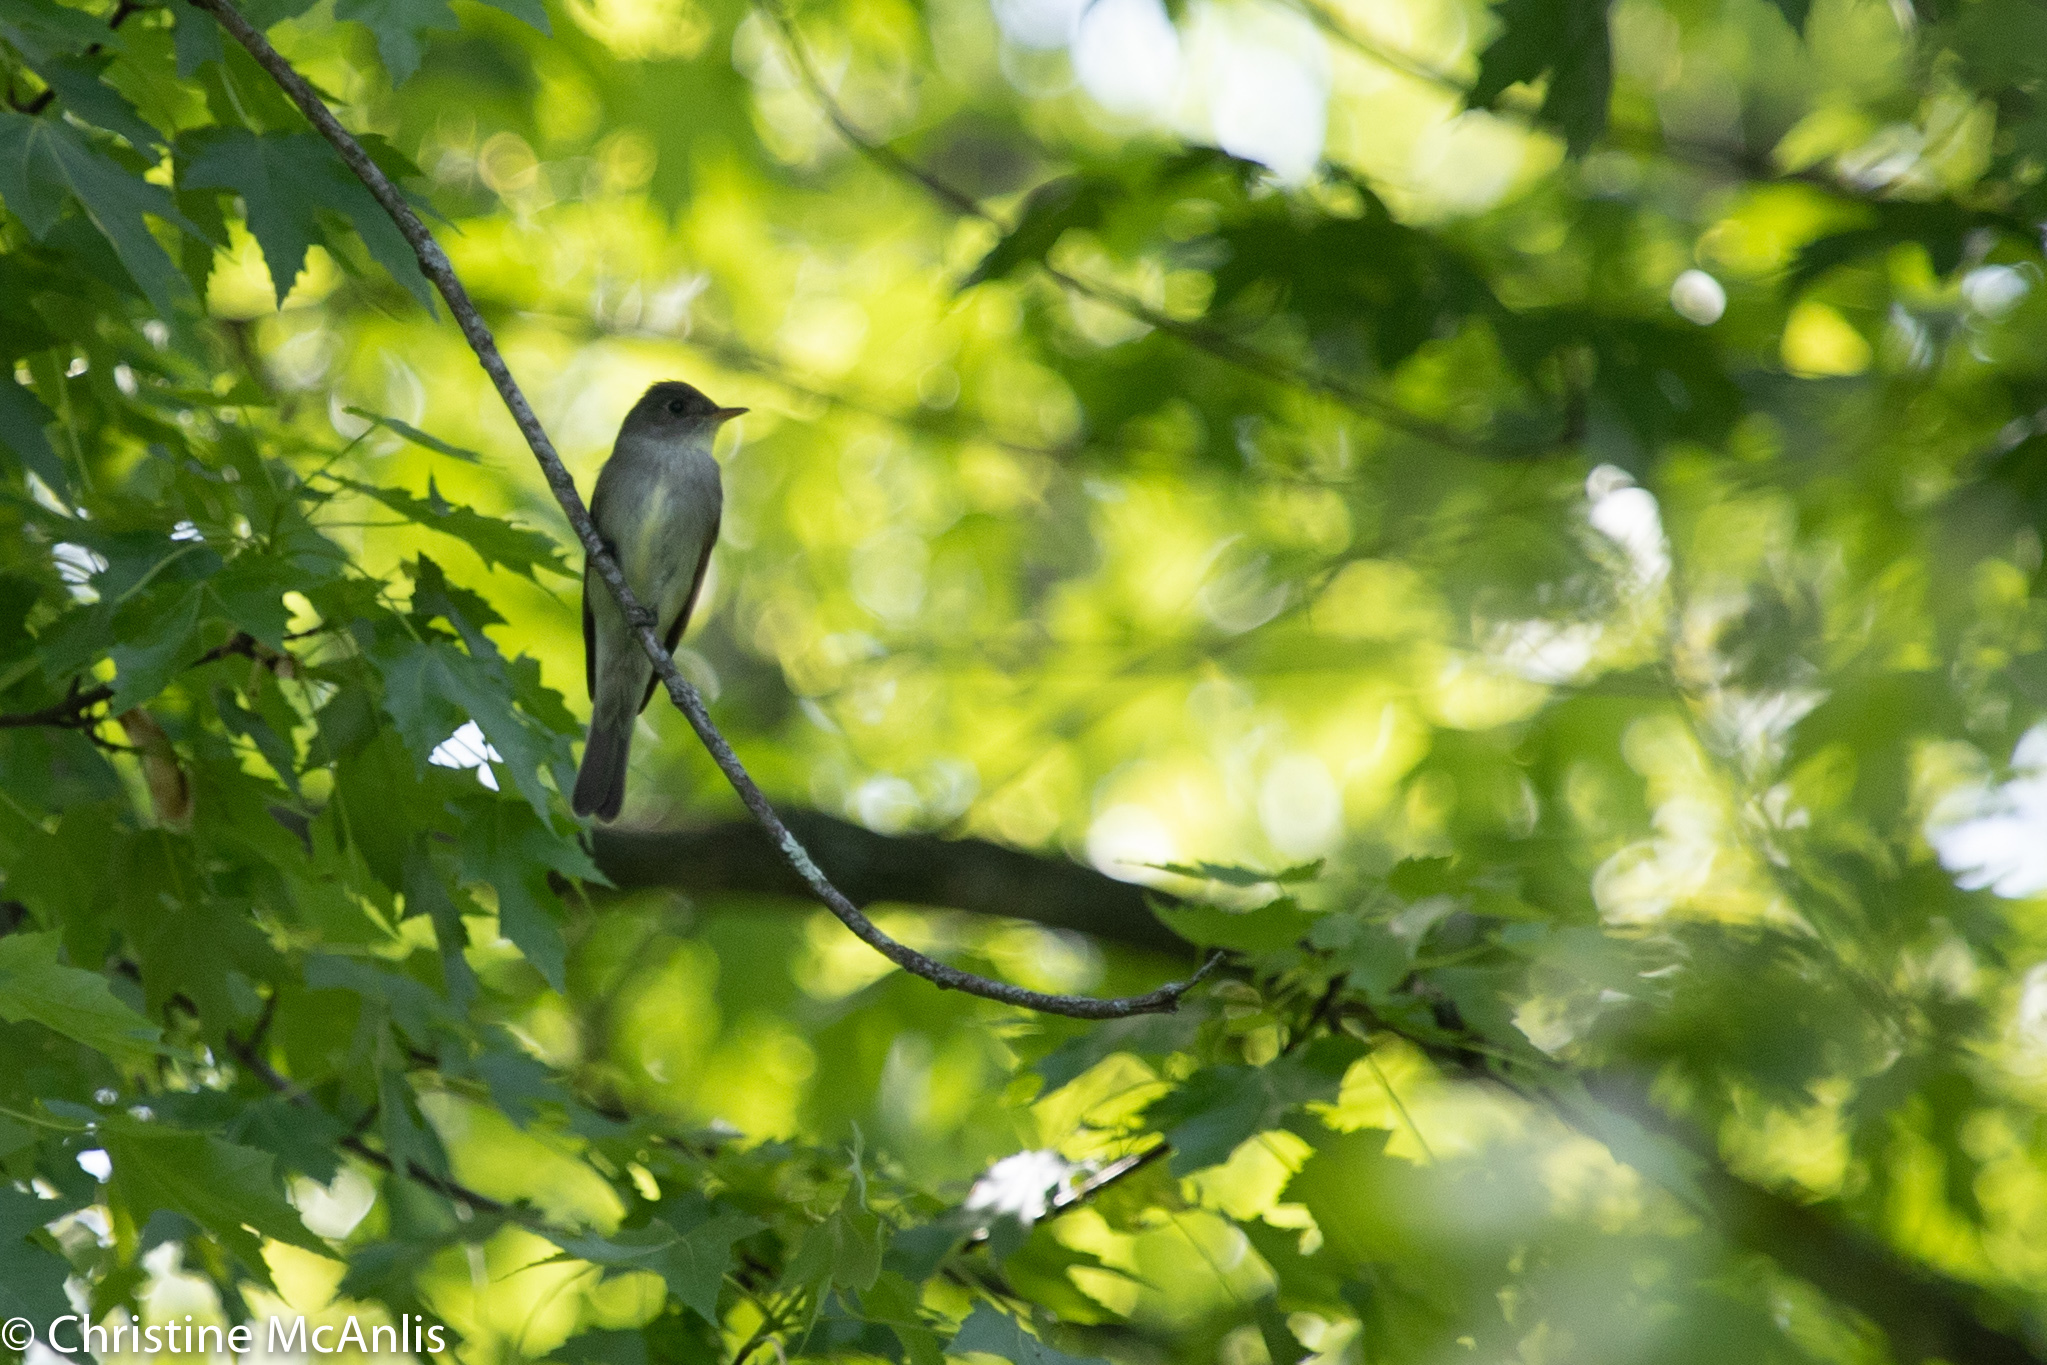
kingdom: Animalia
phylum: Chordata
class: Aves
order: Passeriformes
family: Tyrannidae
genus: Contopus
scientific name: Contopus virens
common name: Eastern wood-pewee
